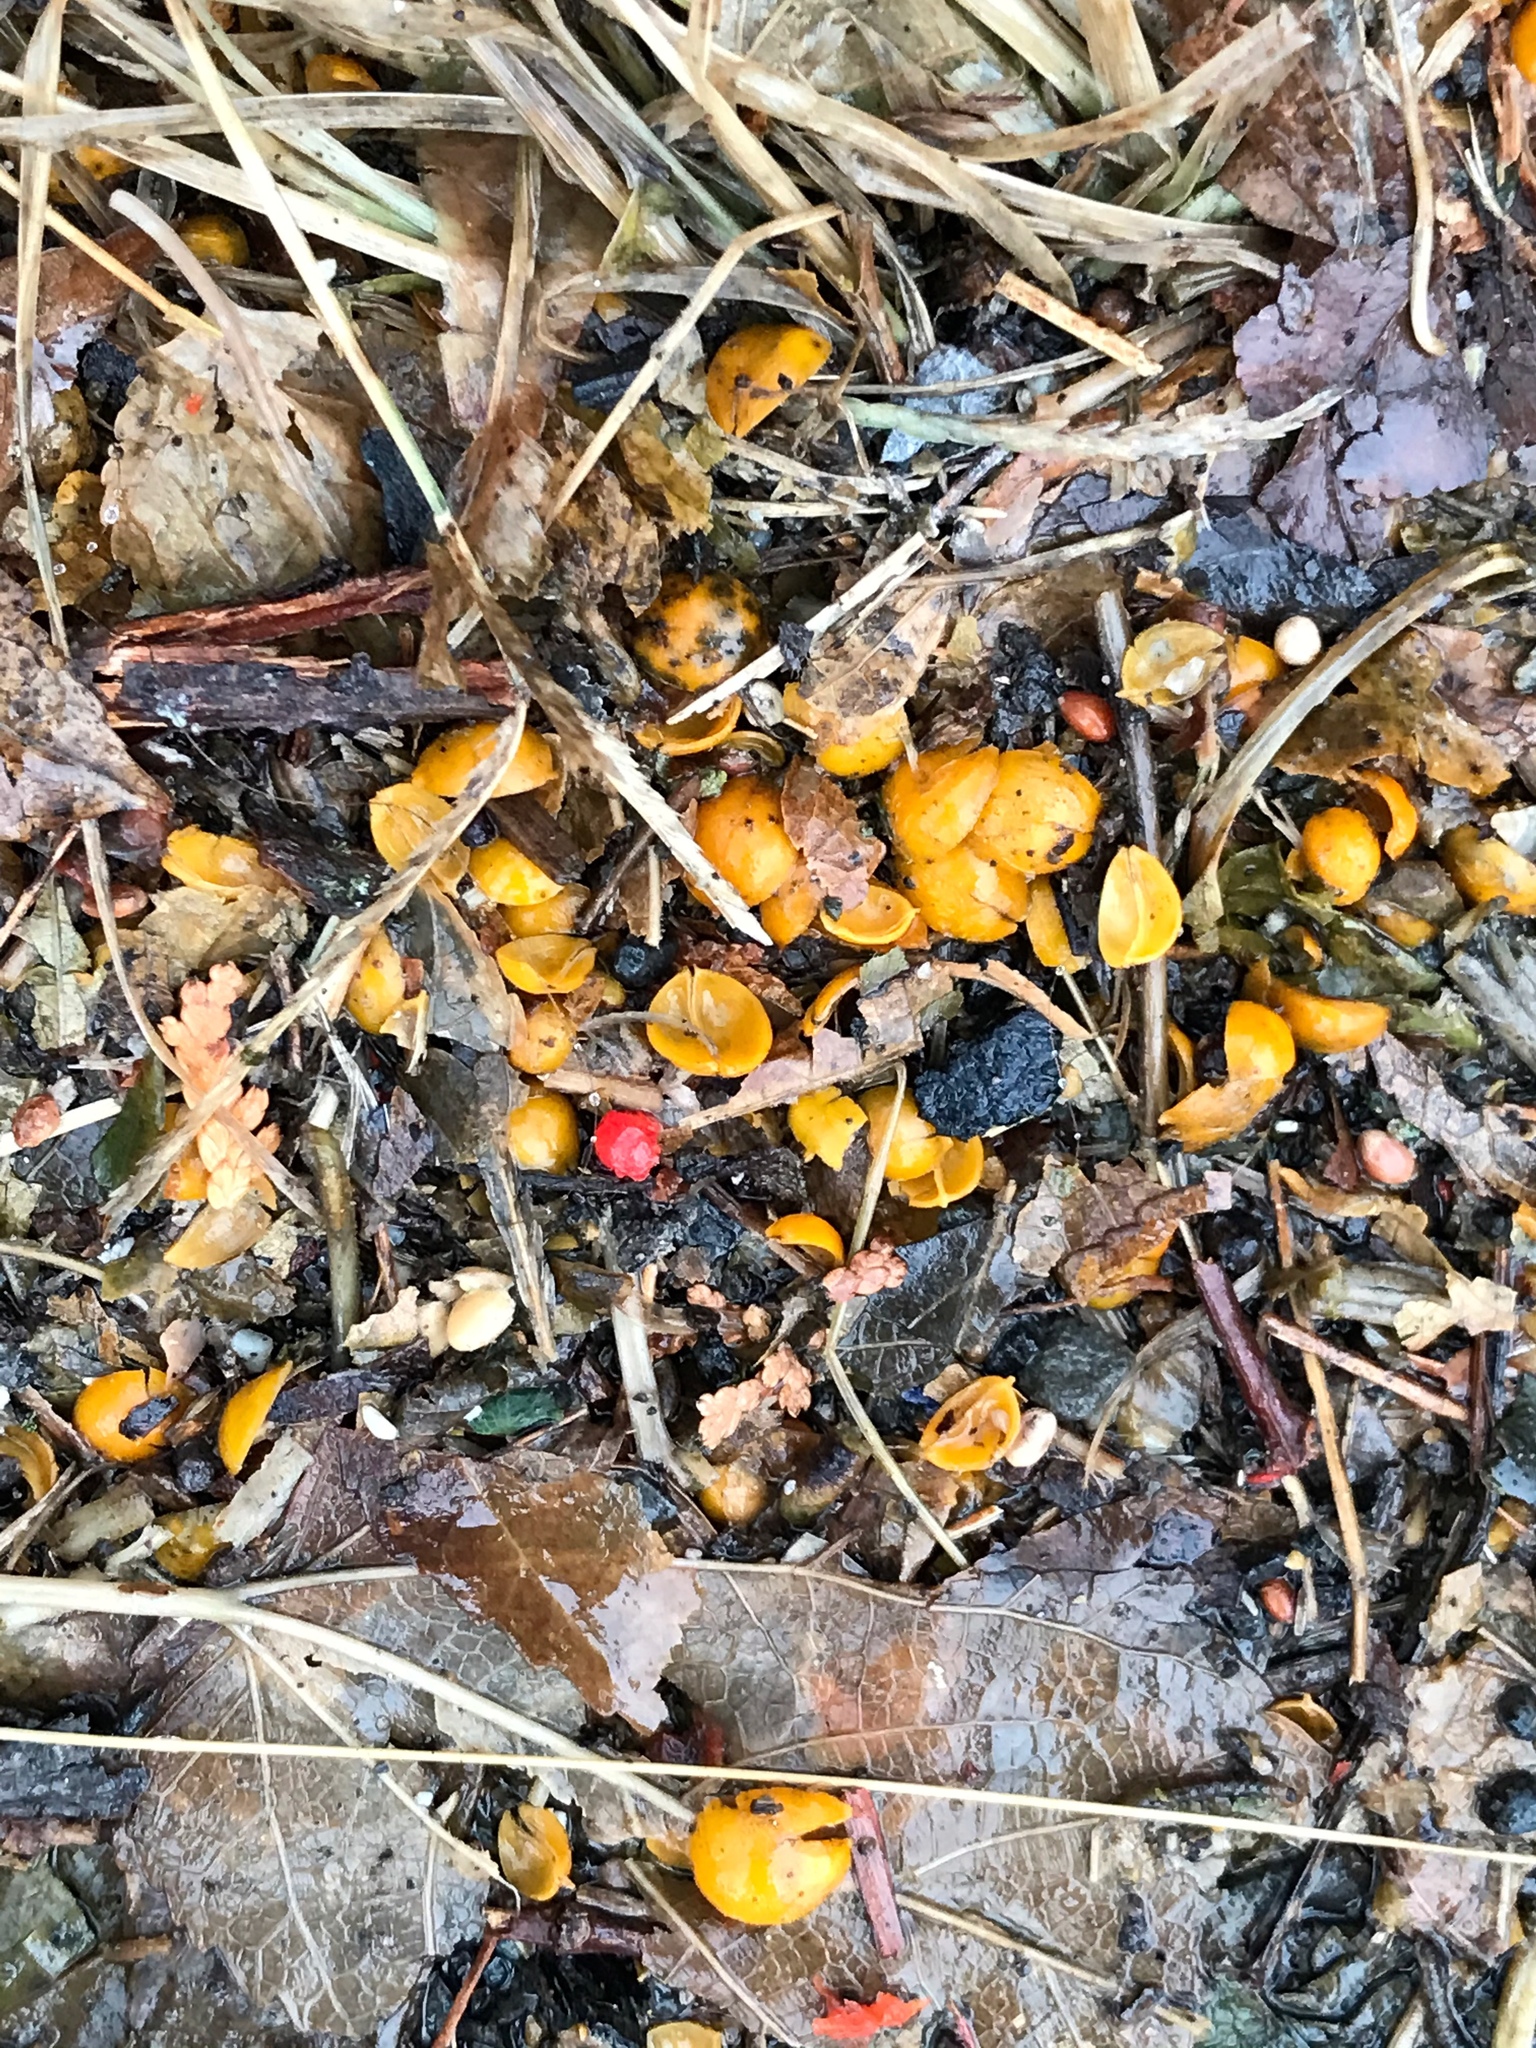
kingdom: Plantae
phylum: Tracheophyta
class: Magnoliopsida
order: Celastrales
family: Celastraceae
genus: Celastrus
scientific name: Celastrus orbiculatus
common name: Oriental bittersweet
